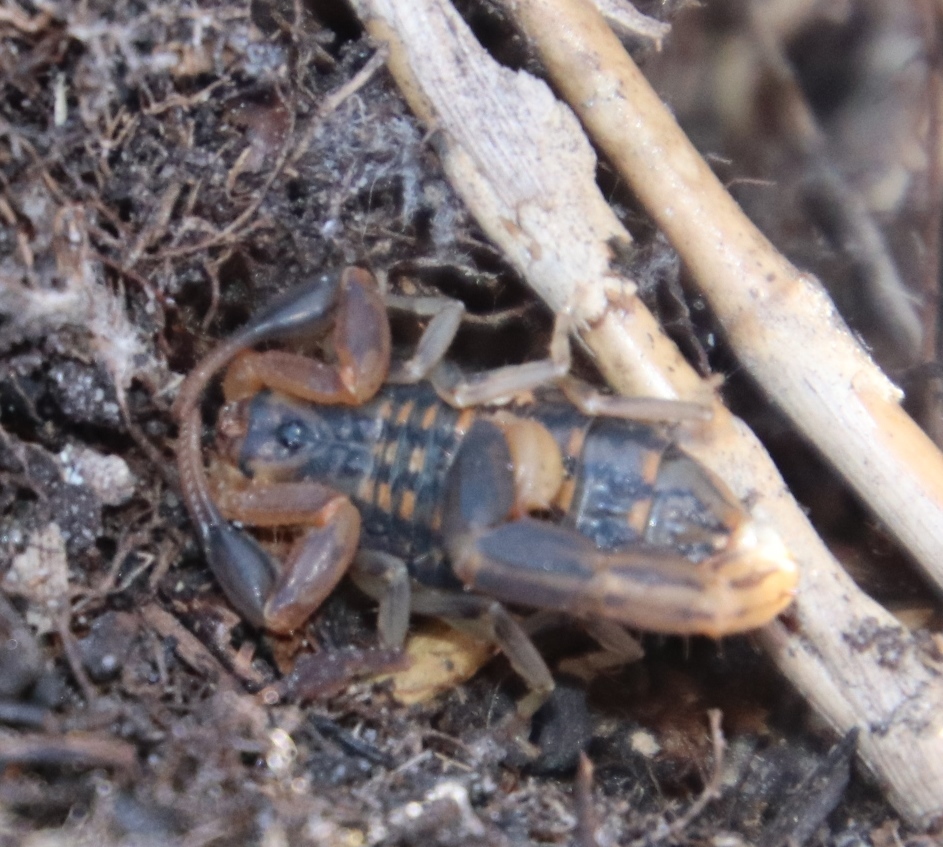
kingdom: Animalia
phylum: Arthropoda
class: Arachnida
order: Scorpiones
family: Buthidae
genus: Uroplectes
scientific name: Uroplectes lineatus
